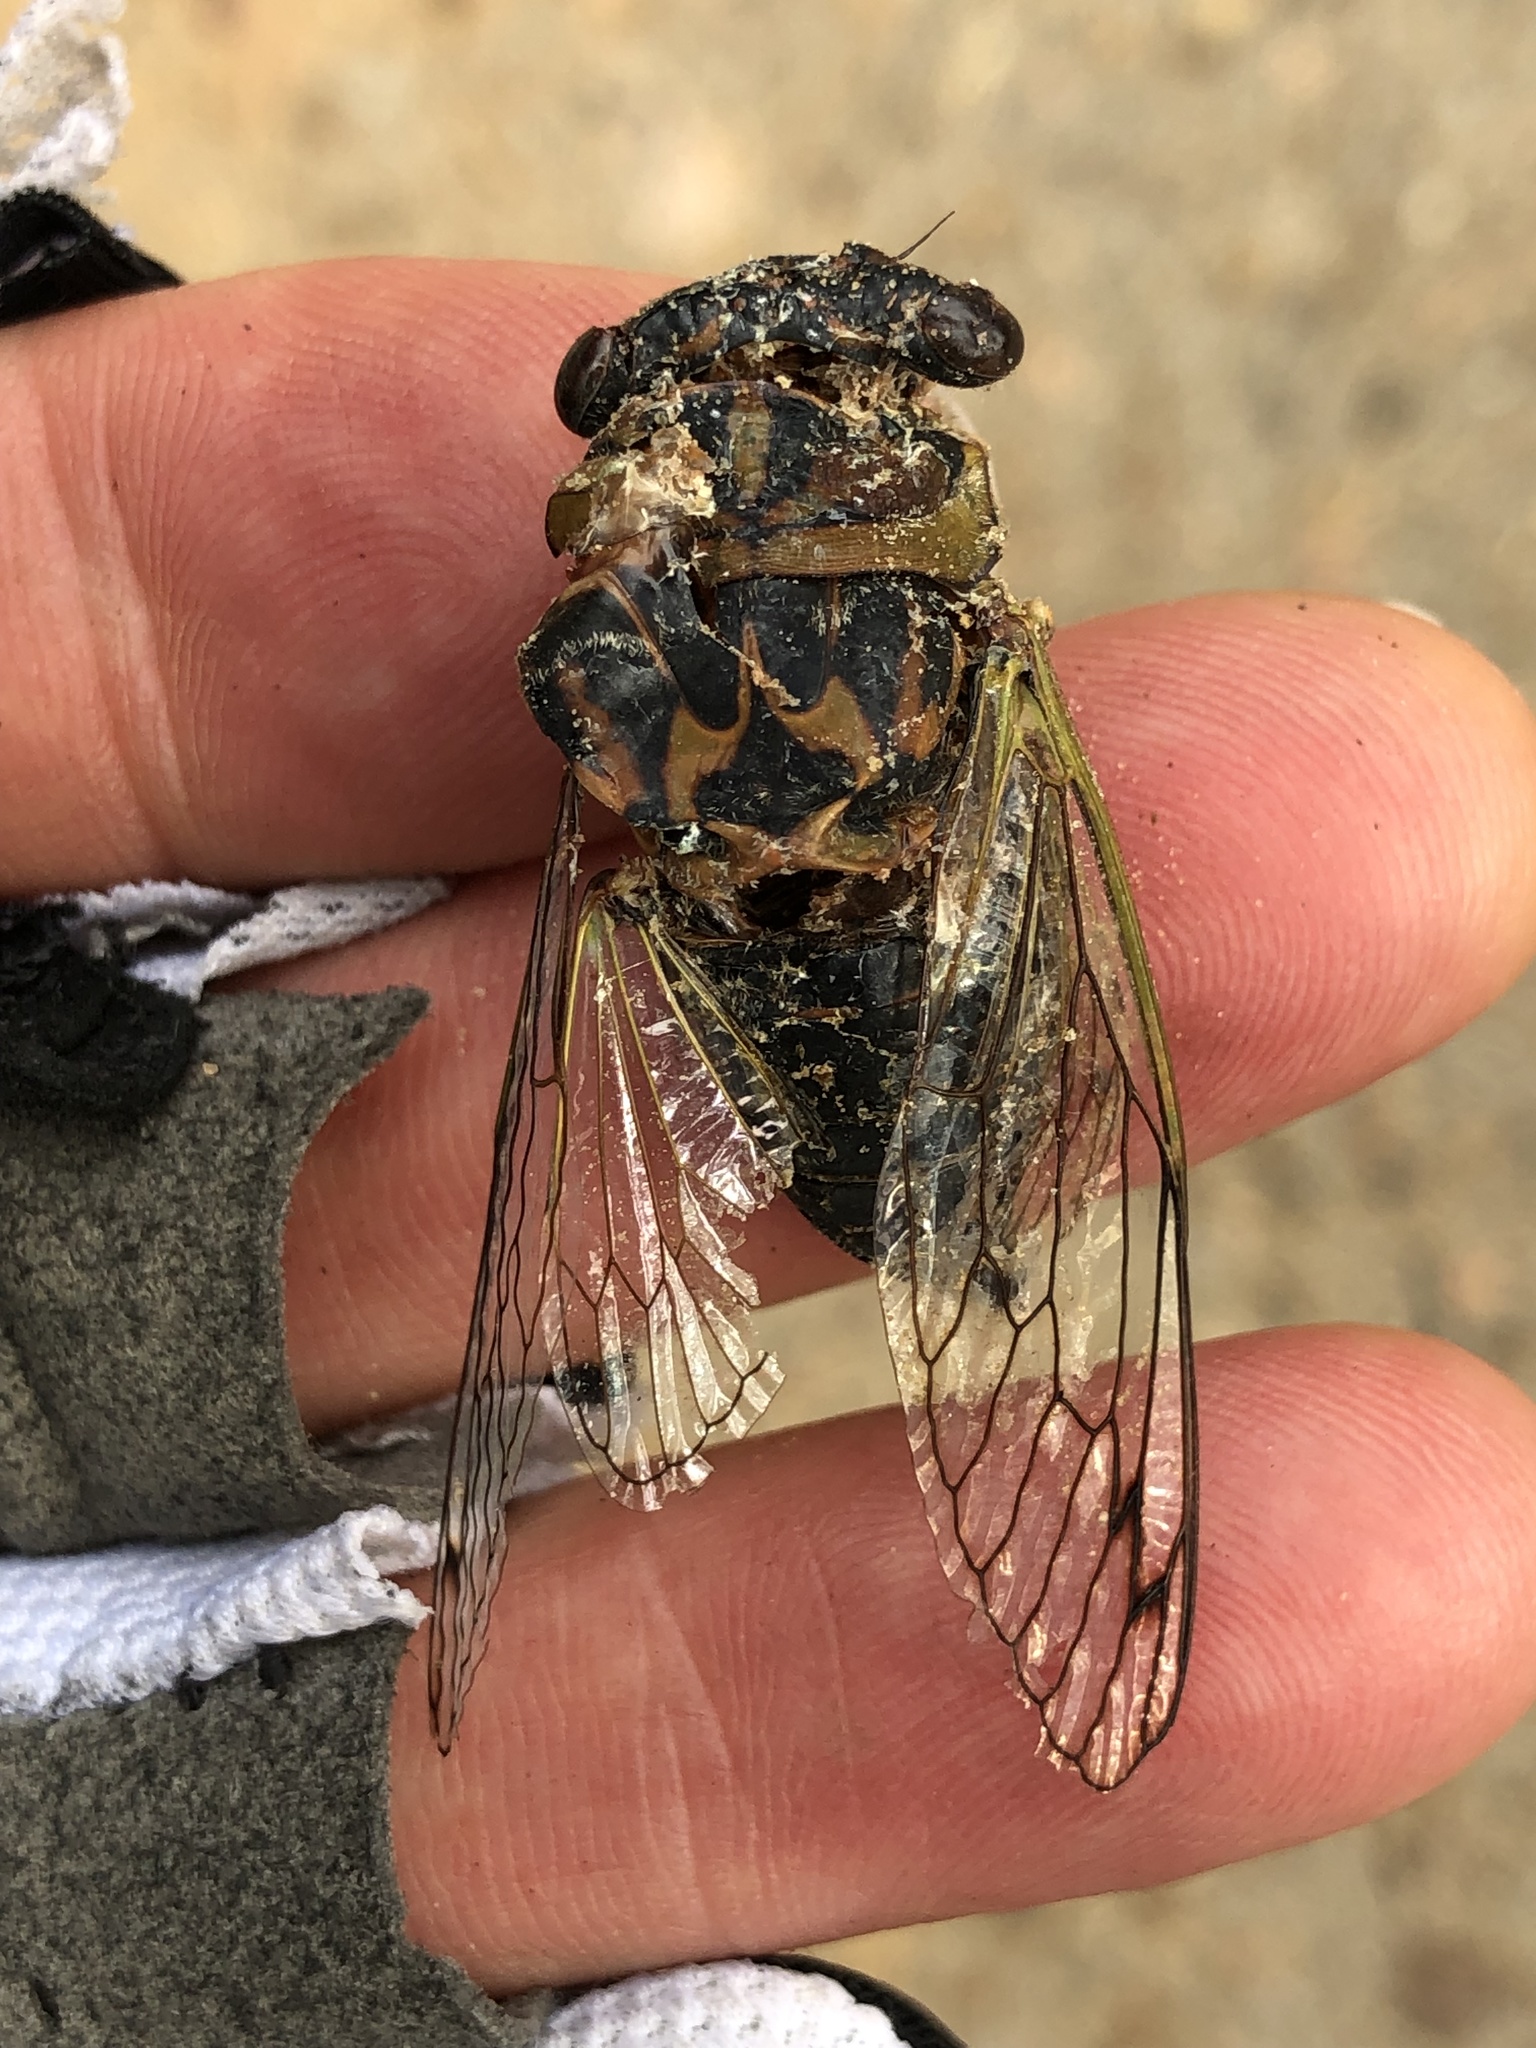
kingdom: Animalia
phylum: Arthropoda
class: Insecta
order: Hemiptera
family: Cicadidae
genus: Neotibicen
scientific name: Neotibicen davisi
